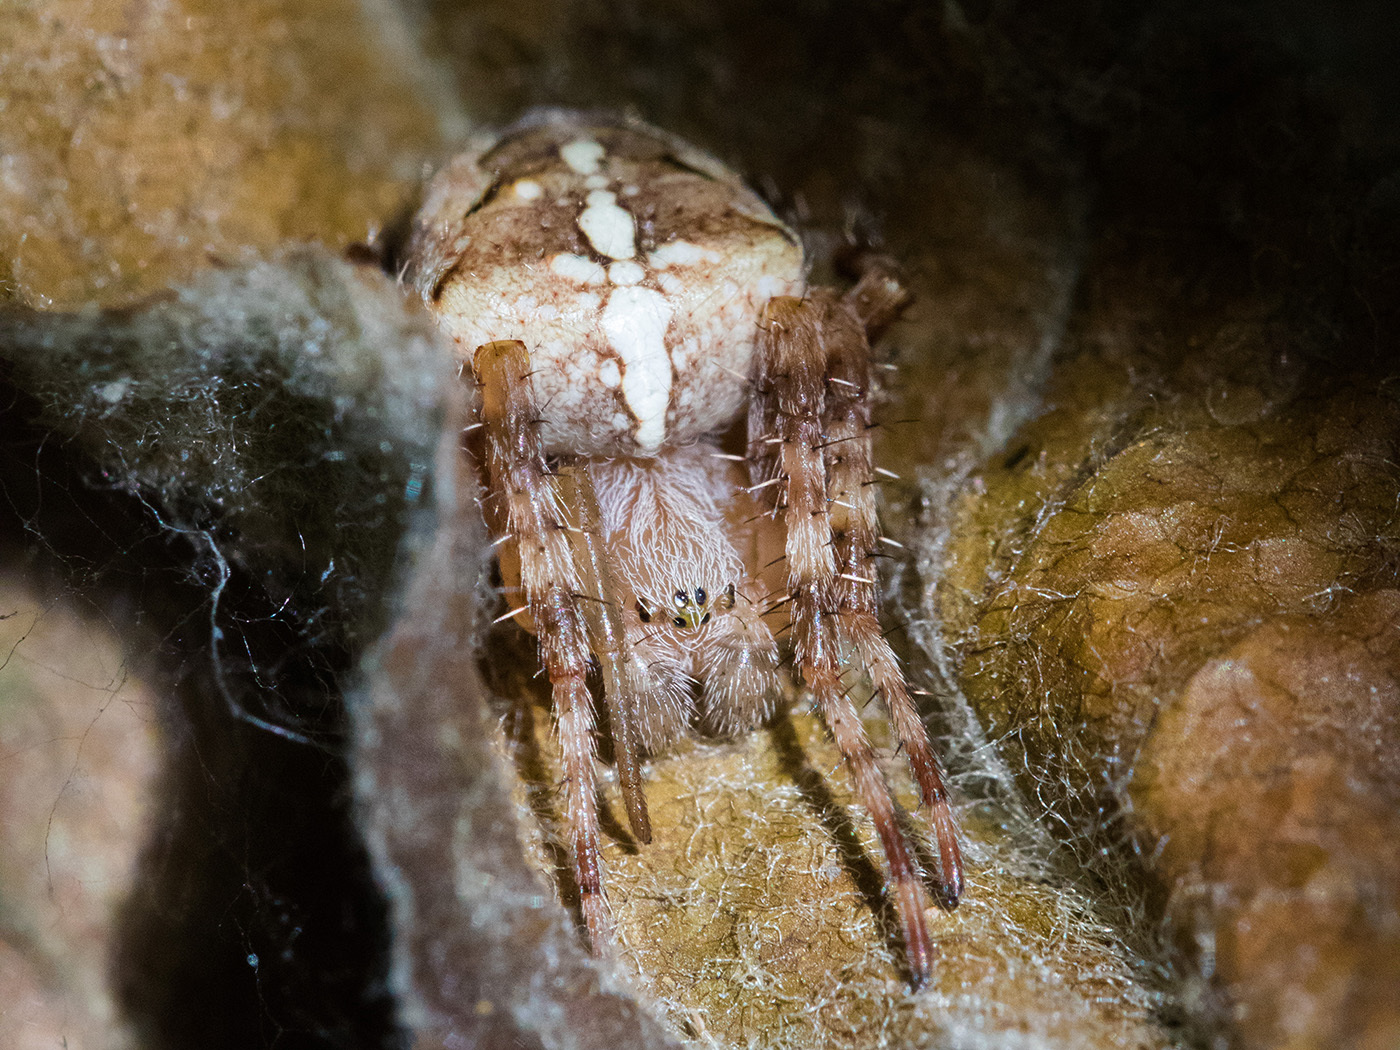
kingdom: Animalia
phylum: Arthropoda
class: Arachnida
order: Araneae
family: Araneidae
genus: Araneus
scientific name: Araneus diadematus
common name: Cross orbweaver
